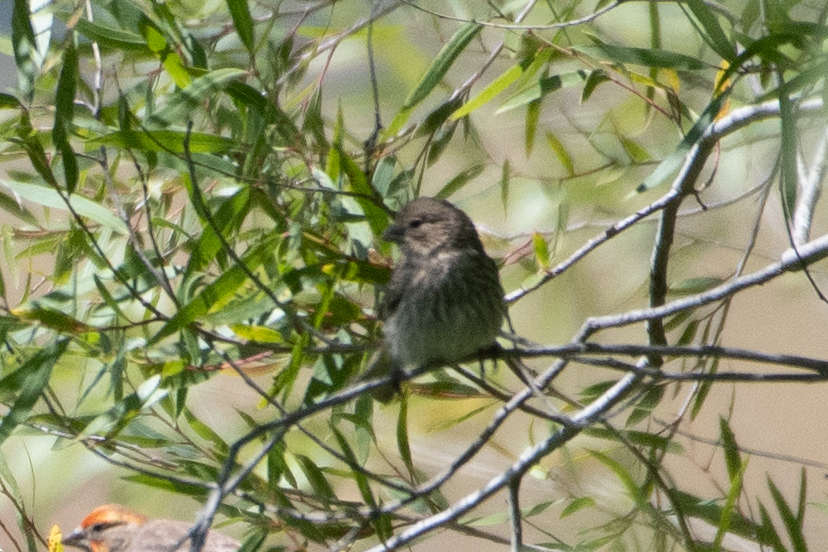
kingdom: Animalia
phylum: Chordata
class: Aves
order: Passeriformes
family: Fringillidae
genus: Haemorhous
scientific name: Haemorhous mexicanus
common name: House finch
